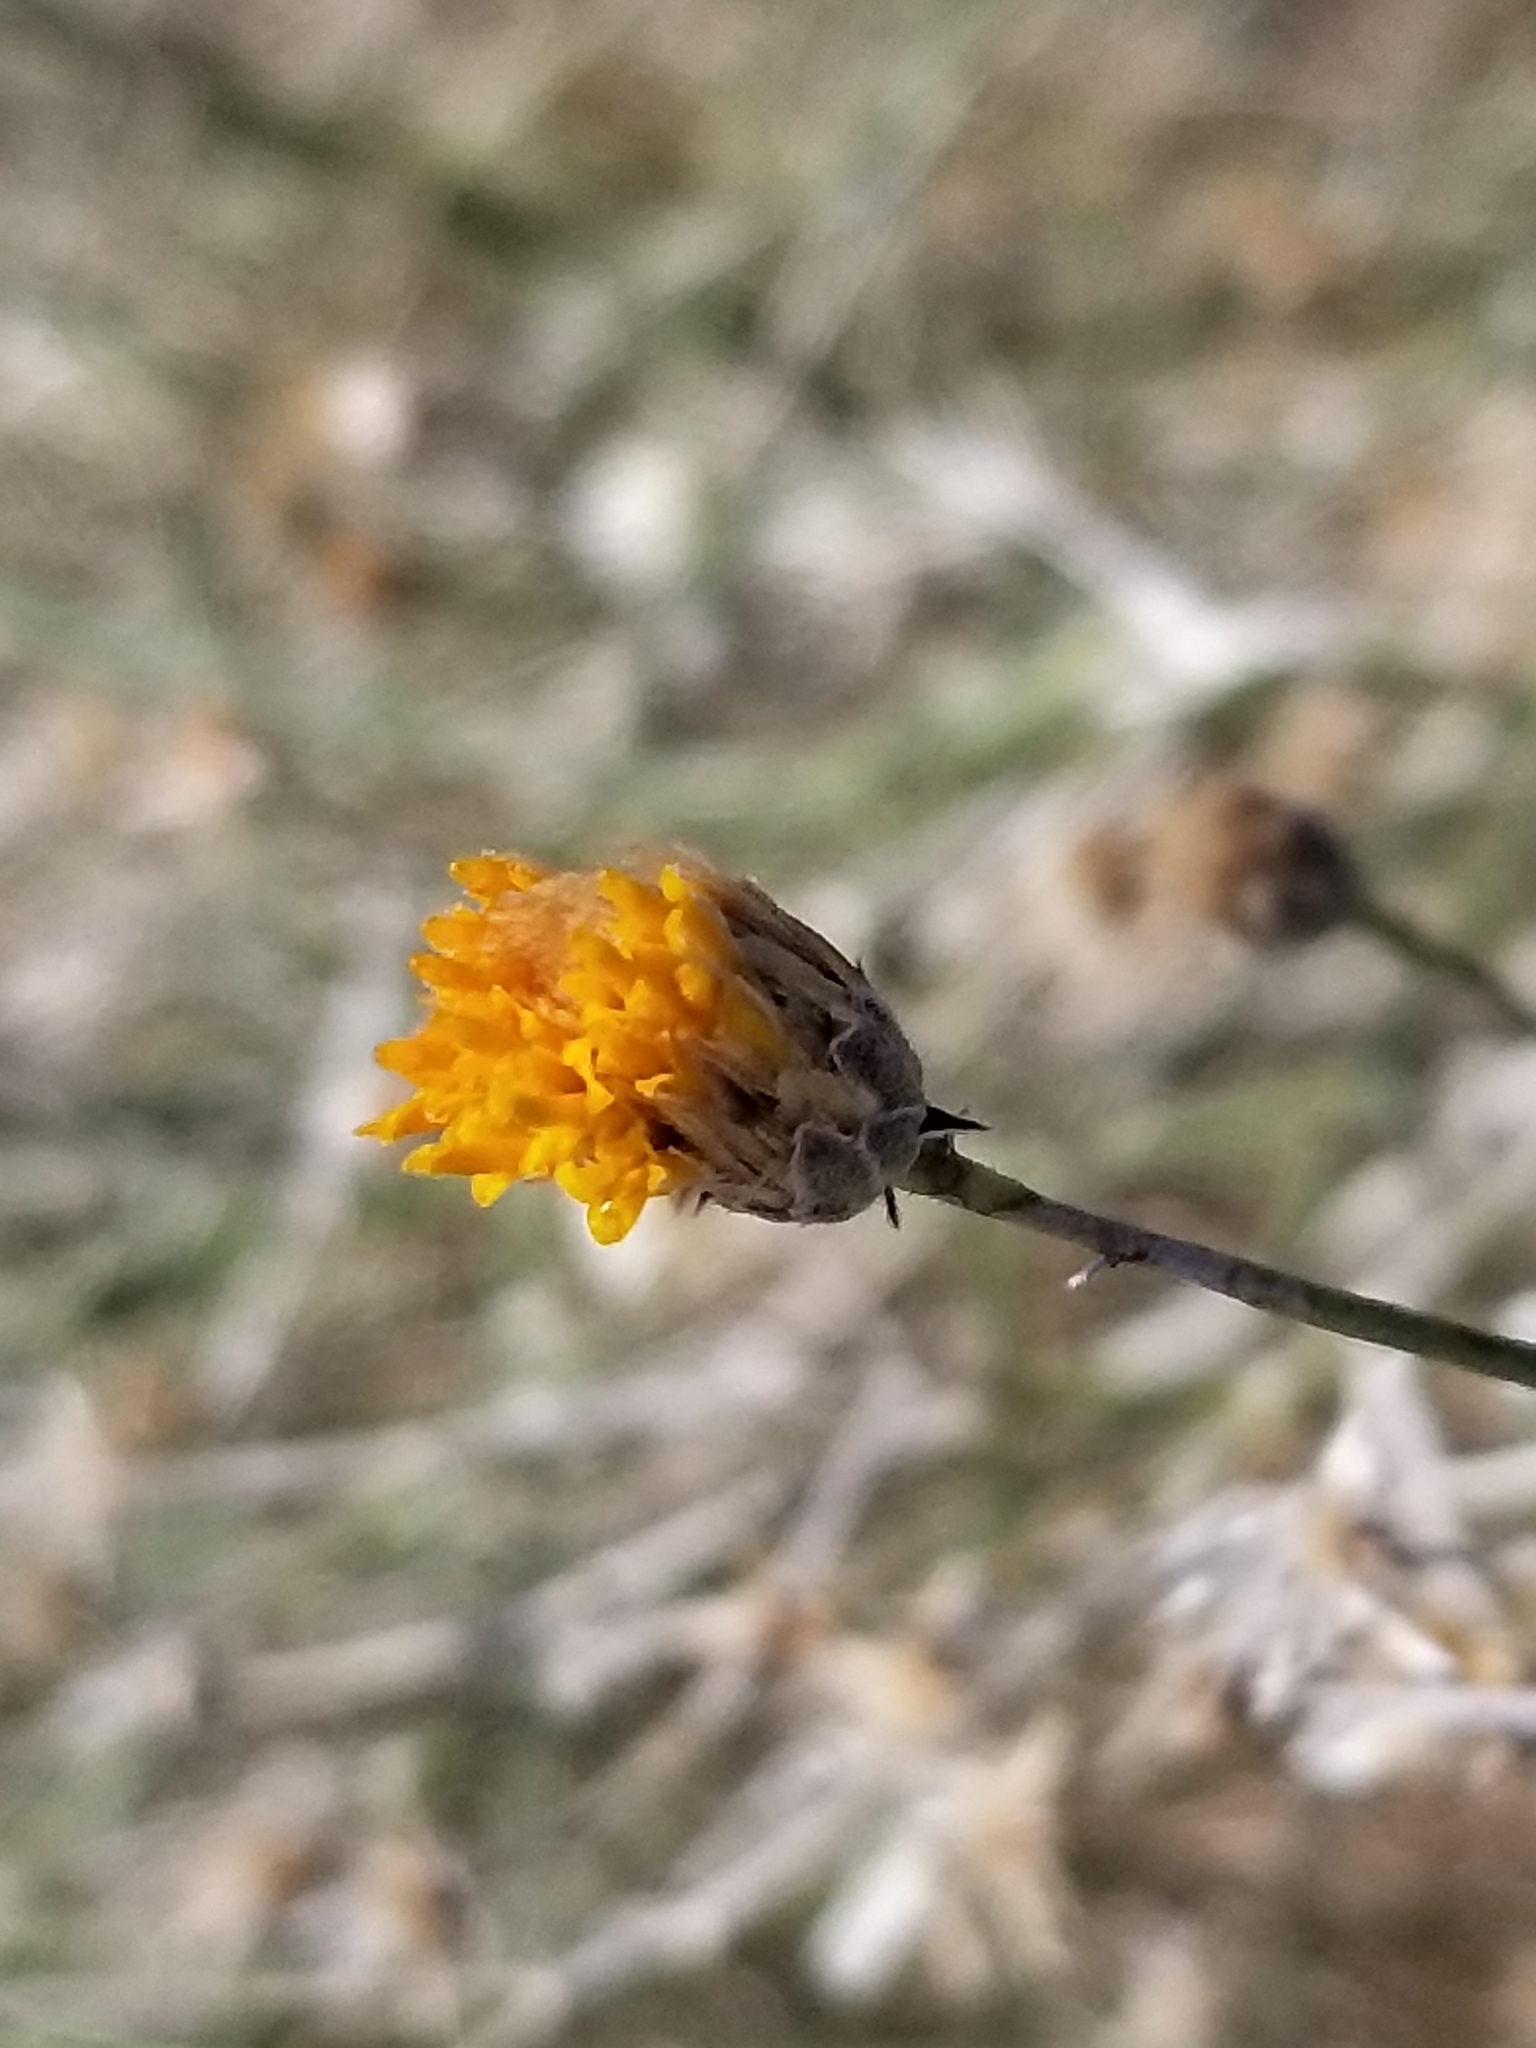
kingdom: Plantae
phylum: Tracheophyta
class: Magnoliopsida
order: Asterales
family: Asteraceae
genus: Bebbia
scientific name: Bebbia juncea
